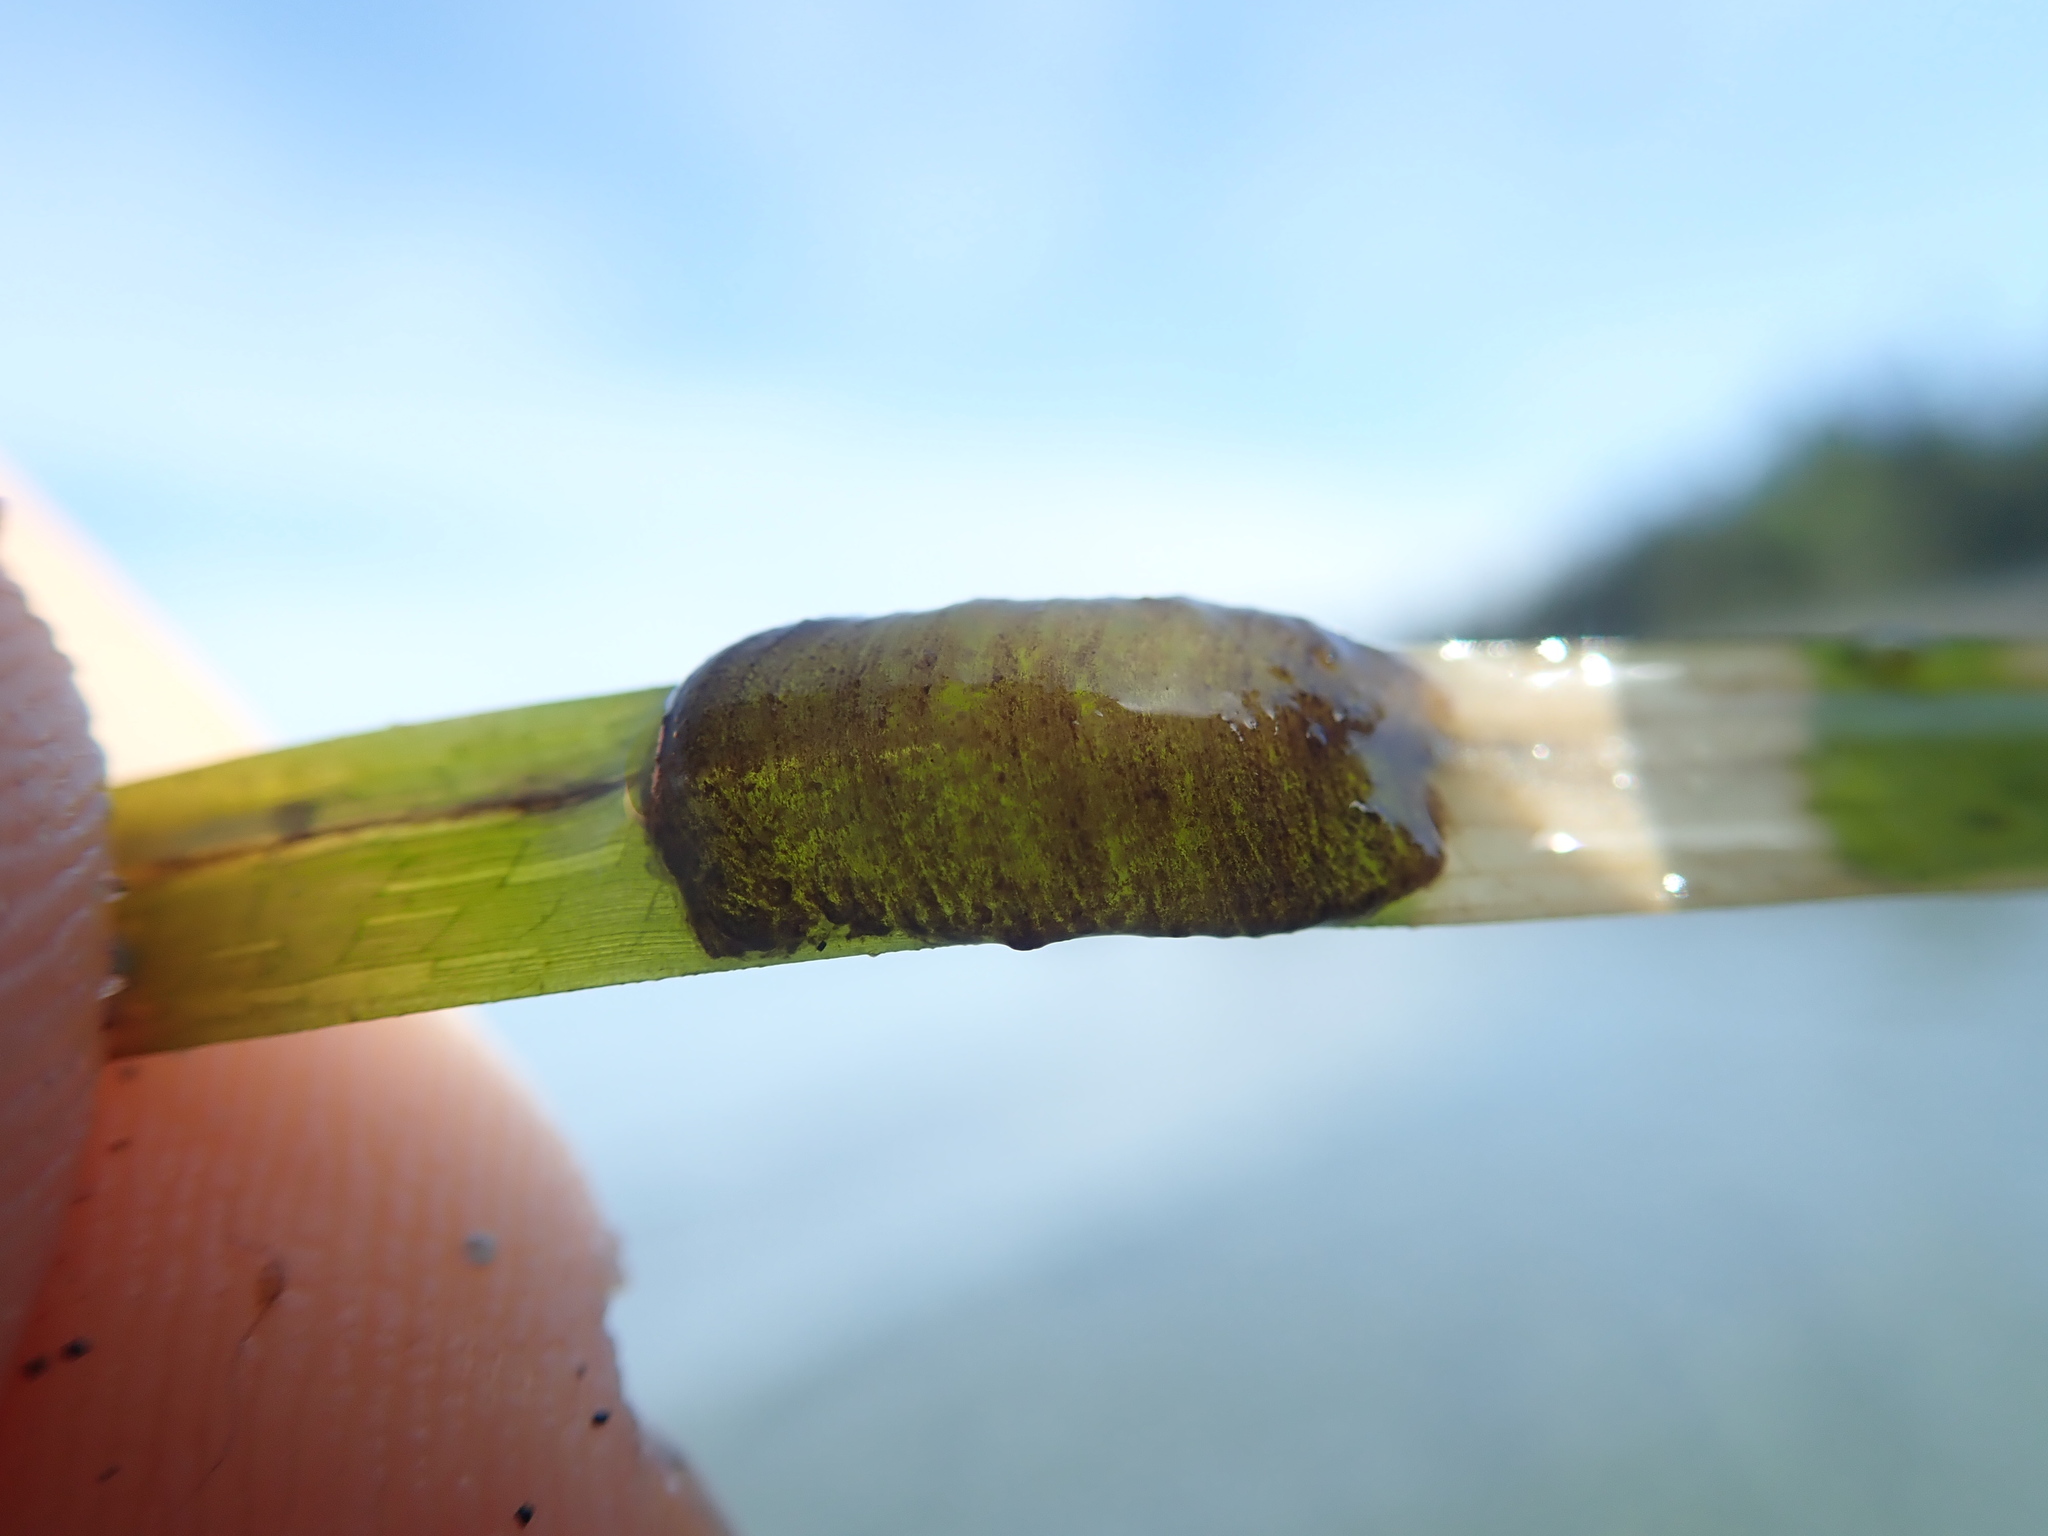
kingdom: Animalia
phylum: Mollusca
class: Gastropoda
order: Aplysiida
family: Aplysiidae
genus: Phyllaplysia
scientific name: Phyllaplysia taylori
